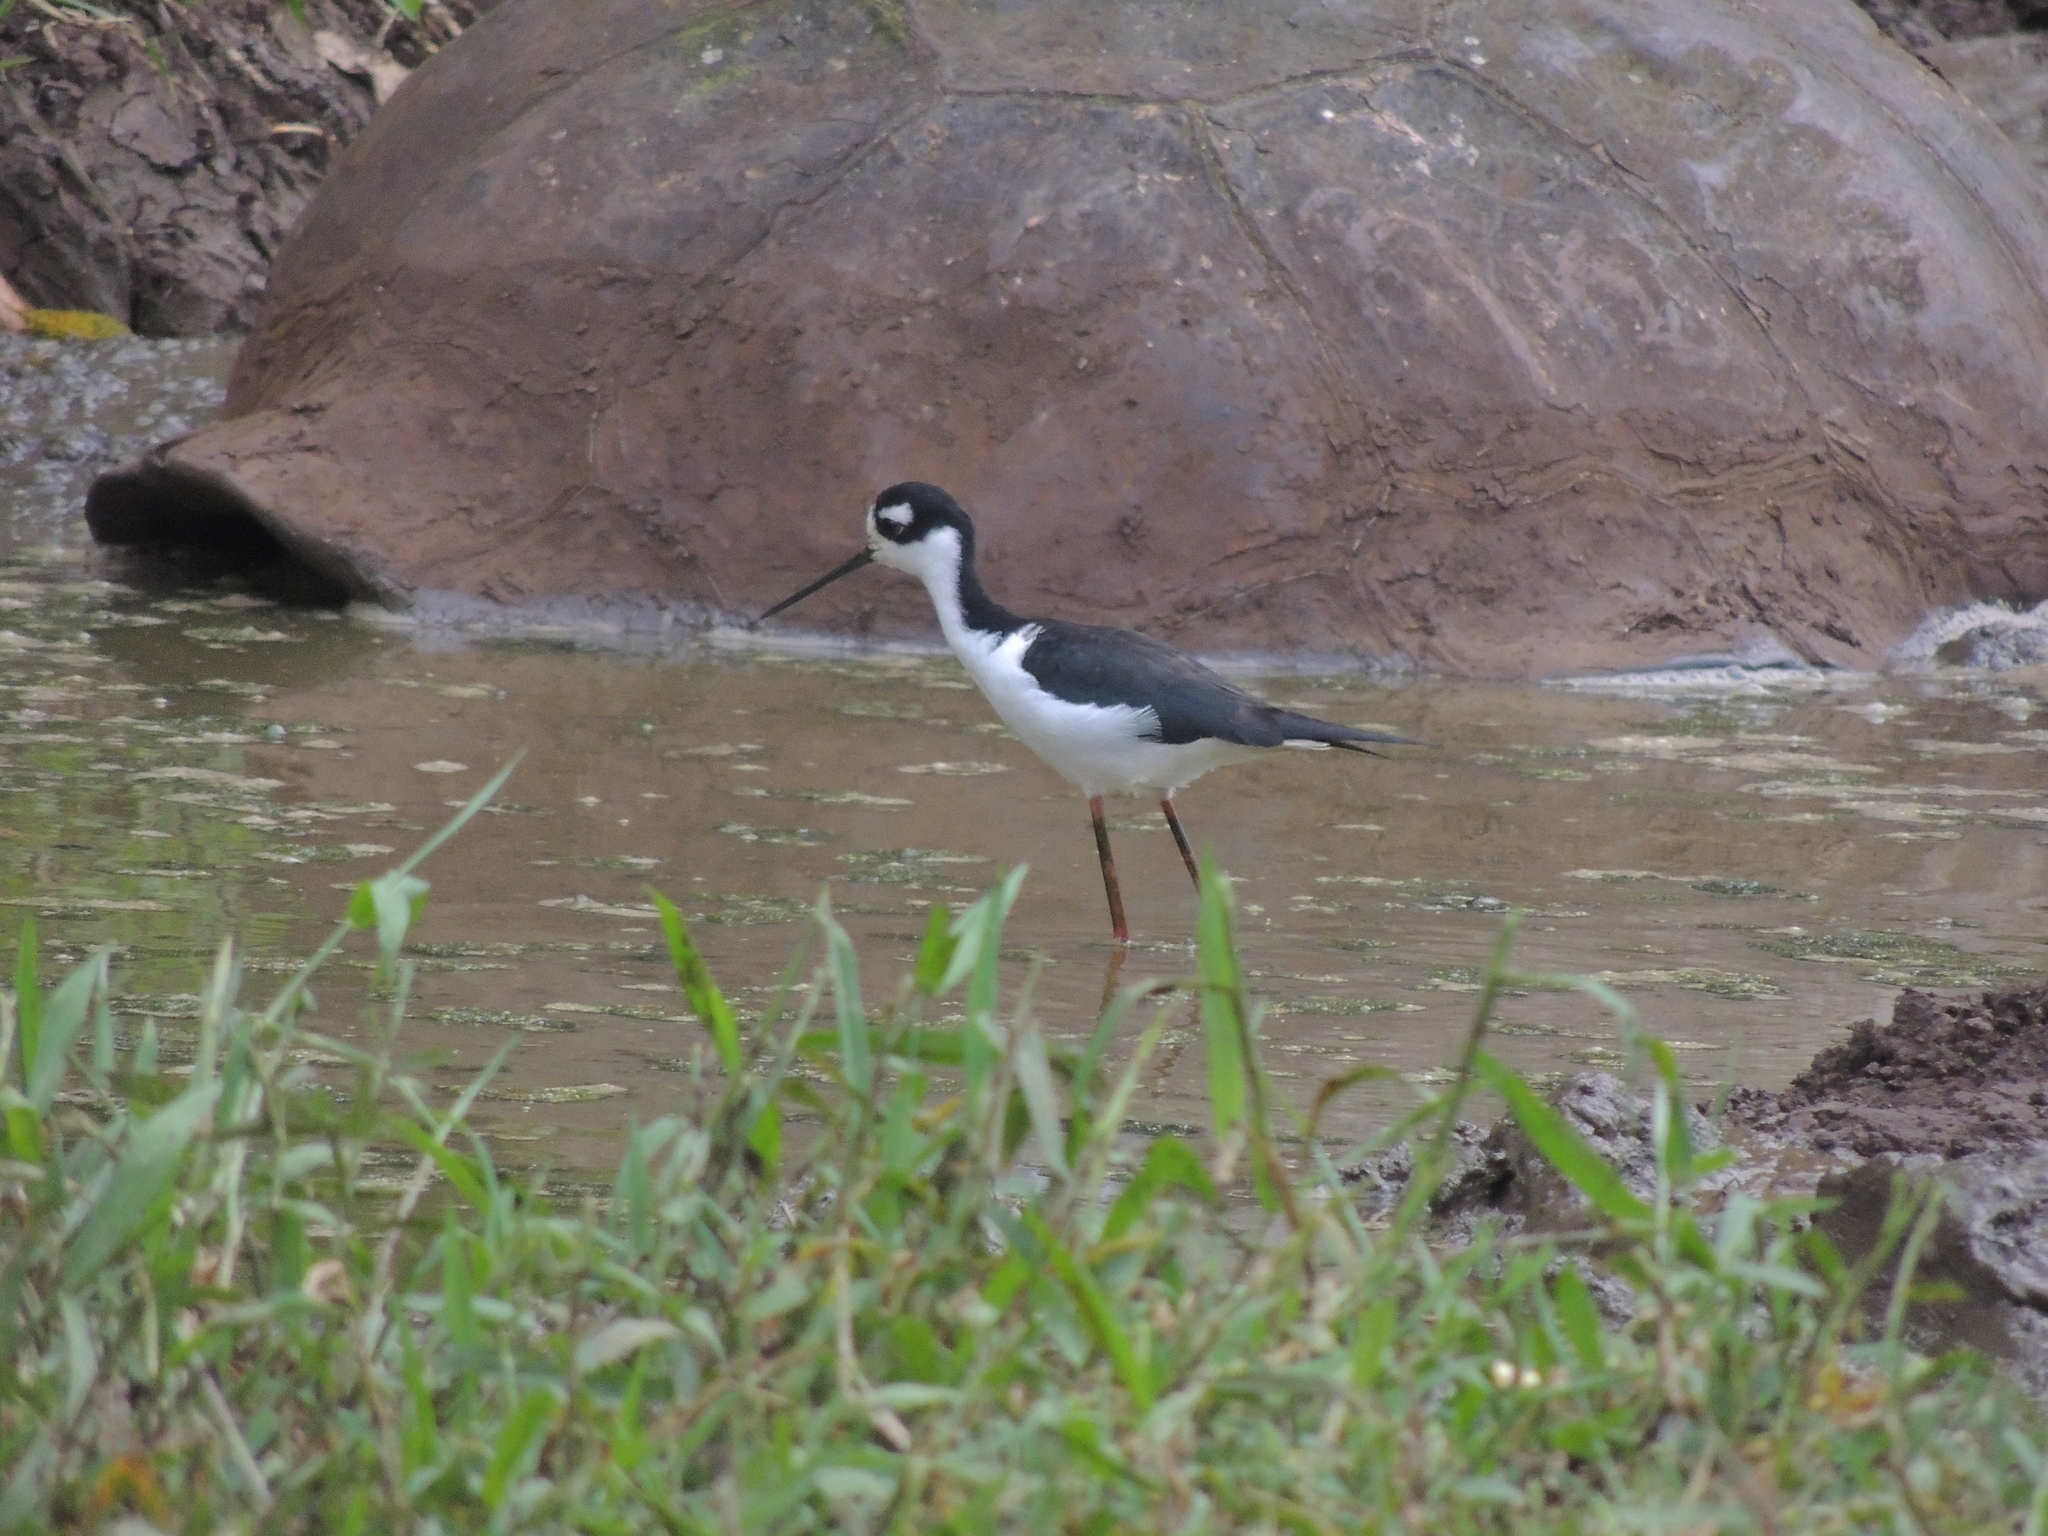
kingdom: Animalia
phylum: Chordata
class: Aves
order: Charadriiformes
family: Recurvirostridae
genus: Himantopus
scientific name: Himantopus mexicanus
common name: Black-necked stilt
